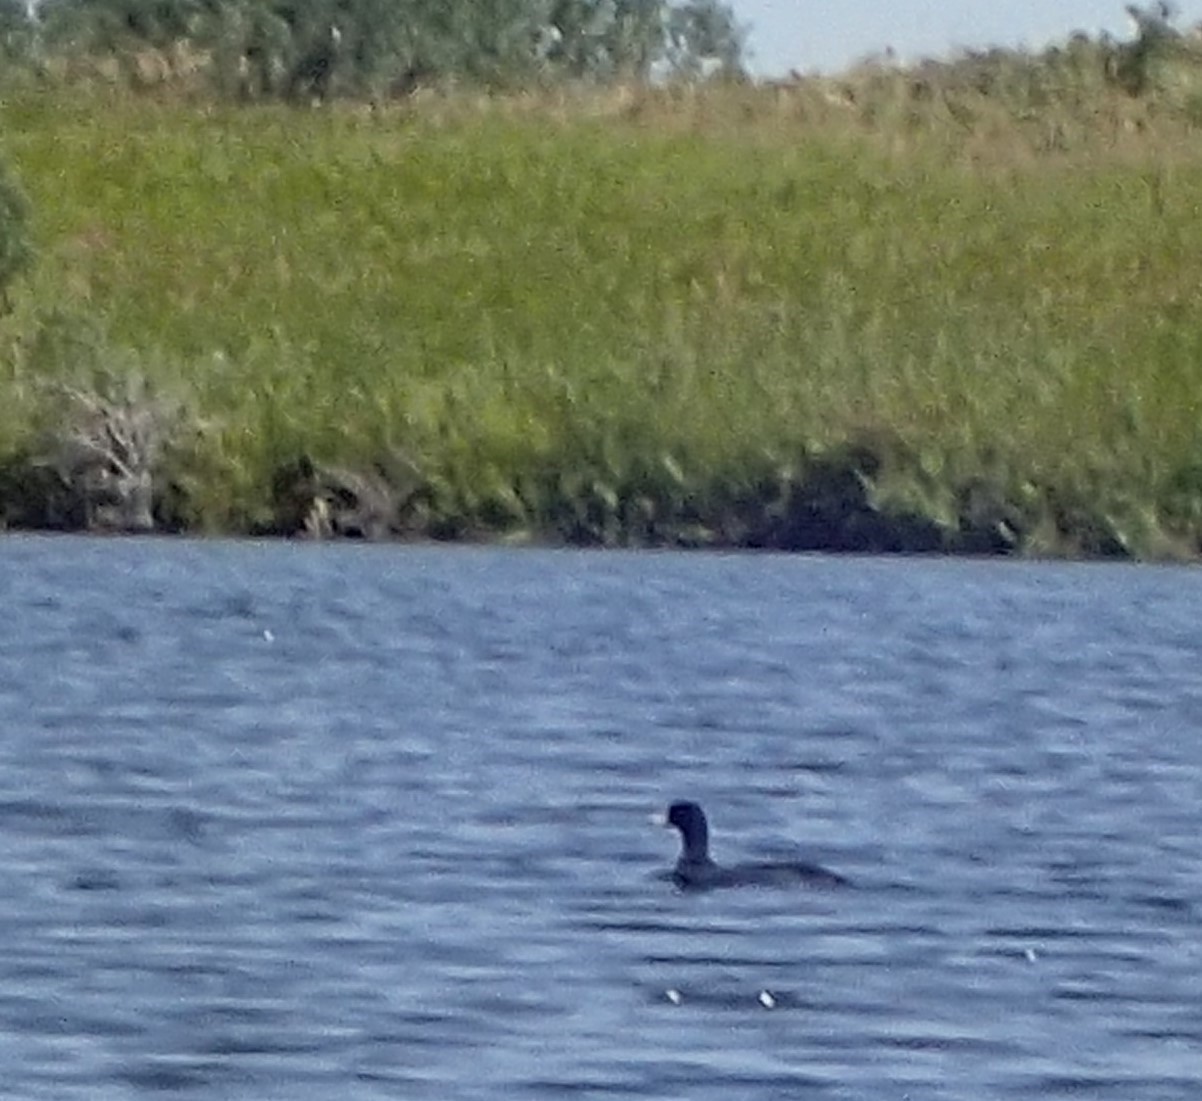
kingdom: Animalia
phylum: Chordata
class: Aves
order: Gruiformes
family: Rallidae
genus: Fulica
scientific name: Fulica americana
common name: American coot
